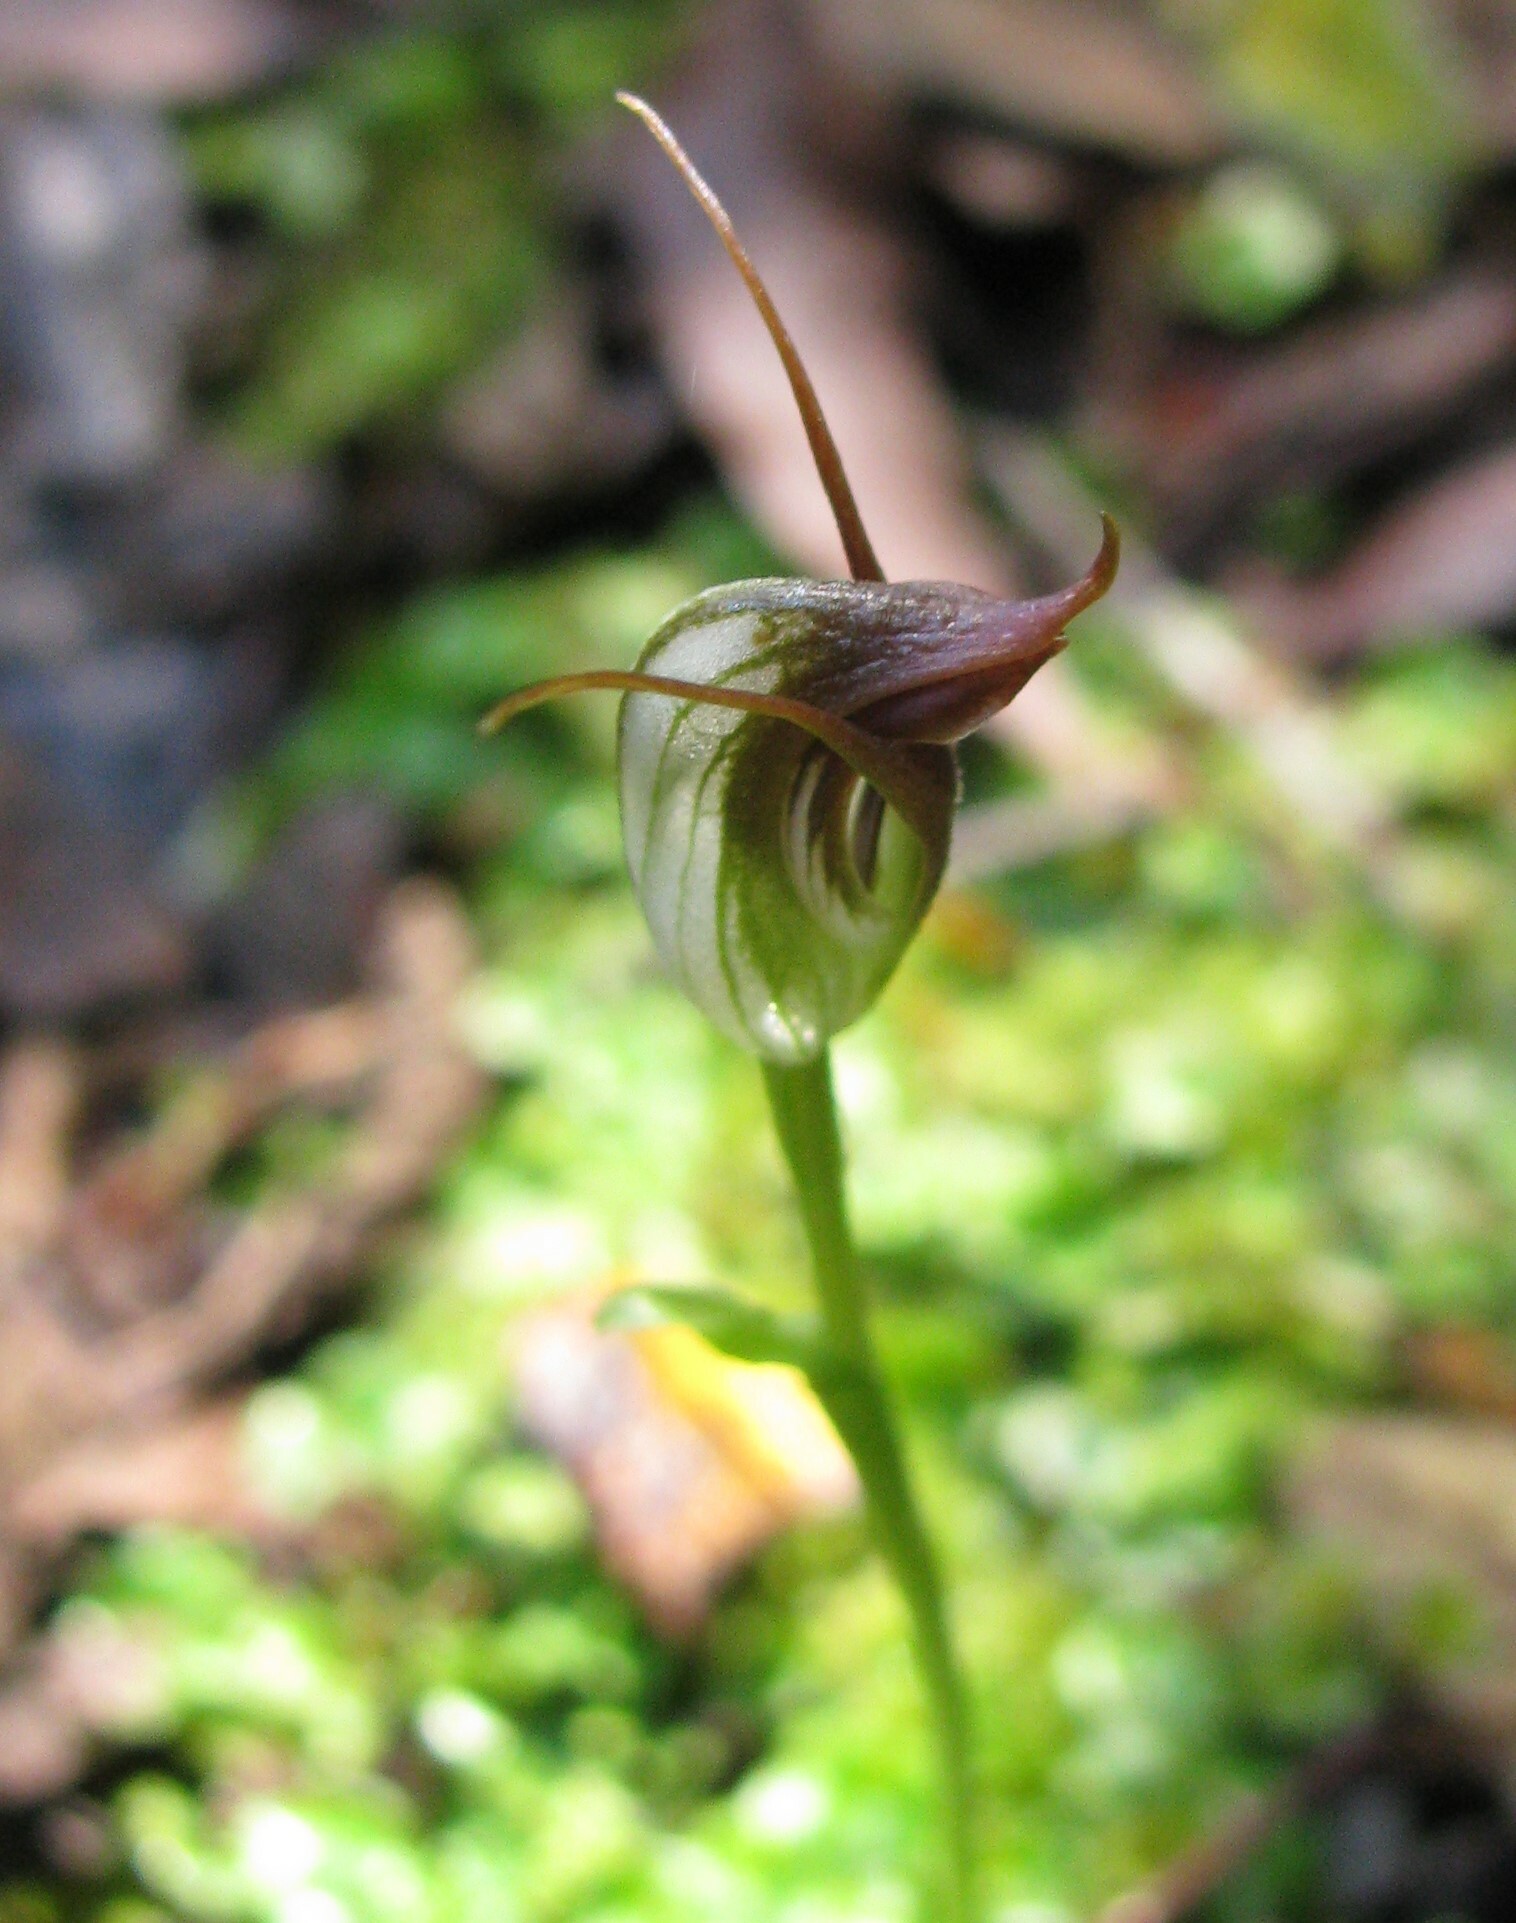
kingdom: Plantae
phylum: Tracheophyta
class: Liliopsida
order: Asparagales
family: Orchidaceae
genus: Pterostylis
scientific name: Pterostylis pedunculata
